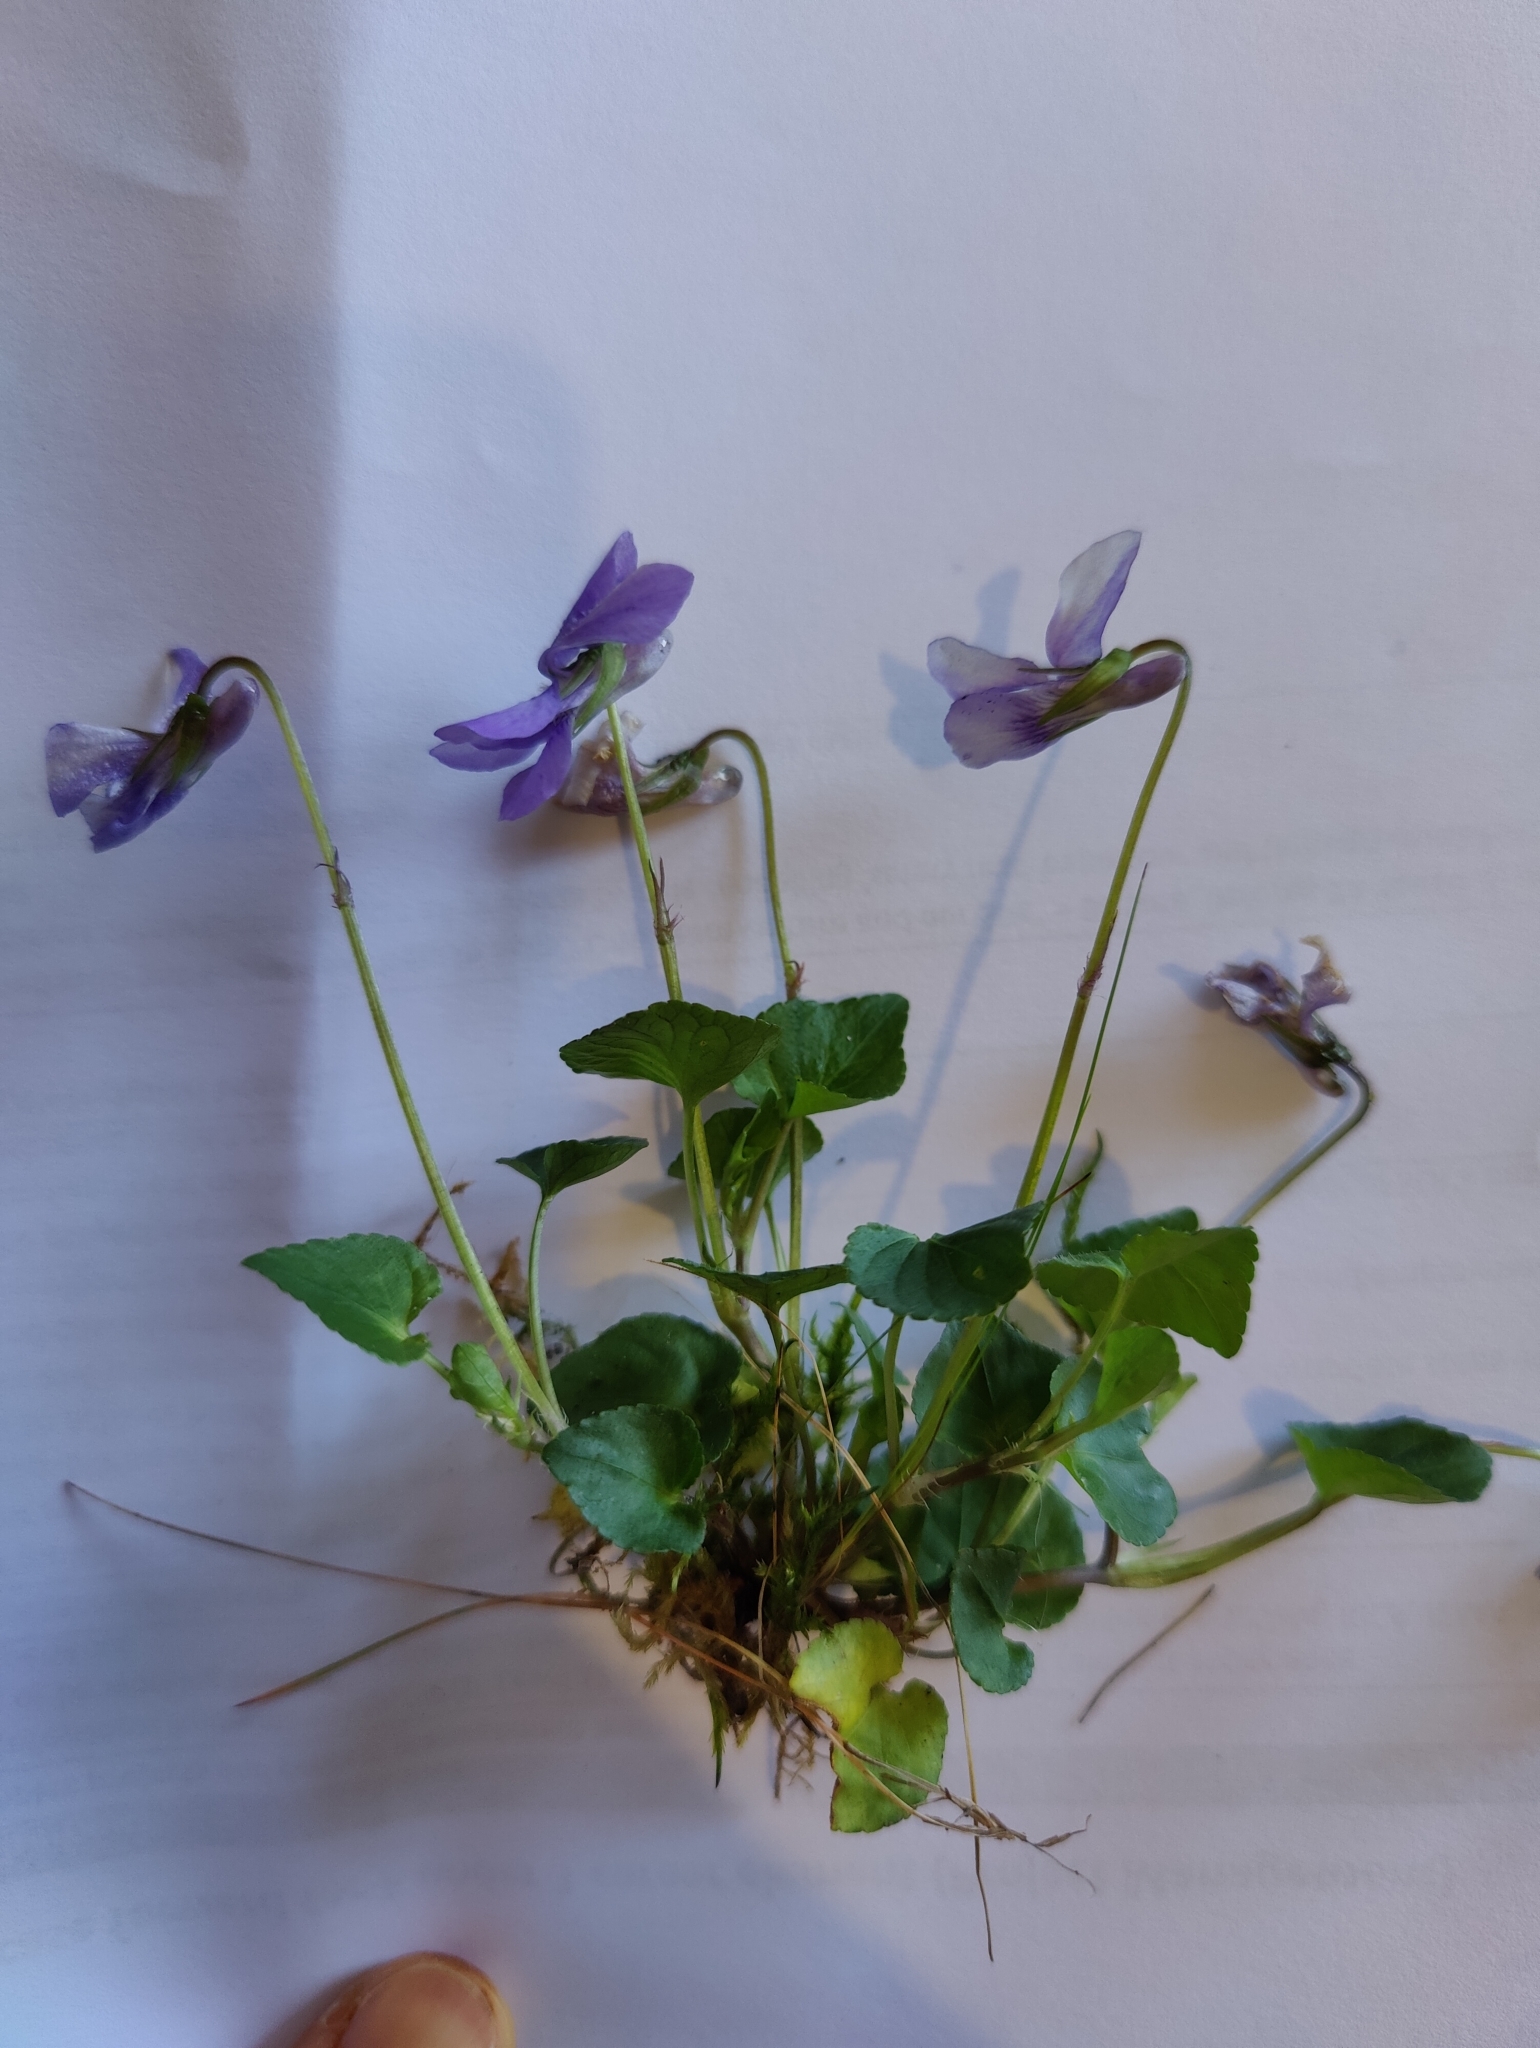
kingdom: Plantae
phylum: Tracheophyta
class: Magnoliopsida
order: Malpighiales
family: Violaceae
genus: Viola
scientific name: Viola riviniana
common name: Common dog-violet
